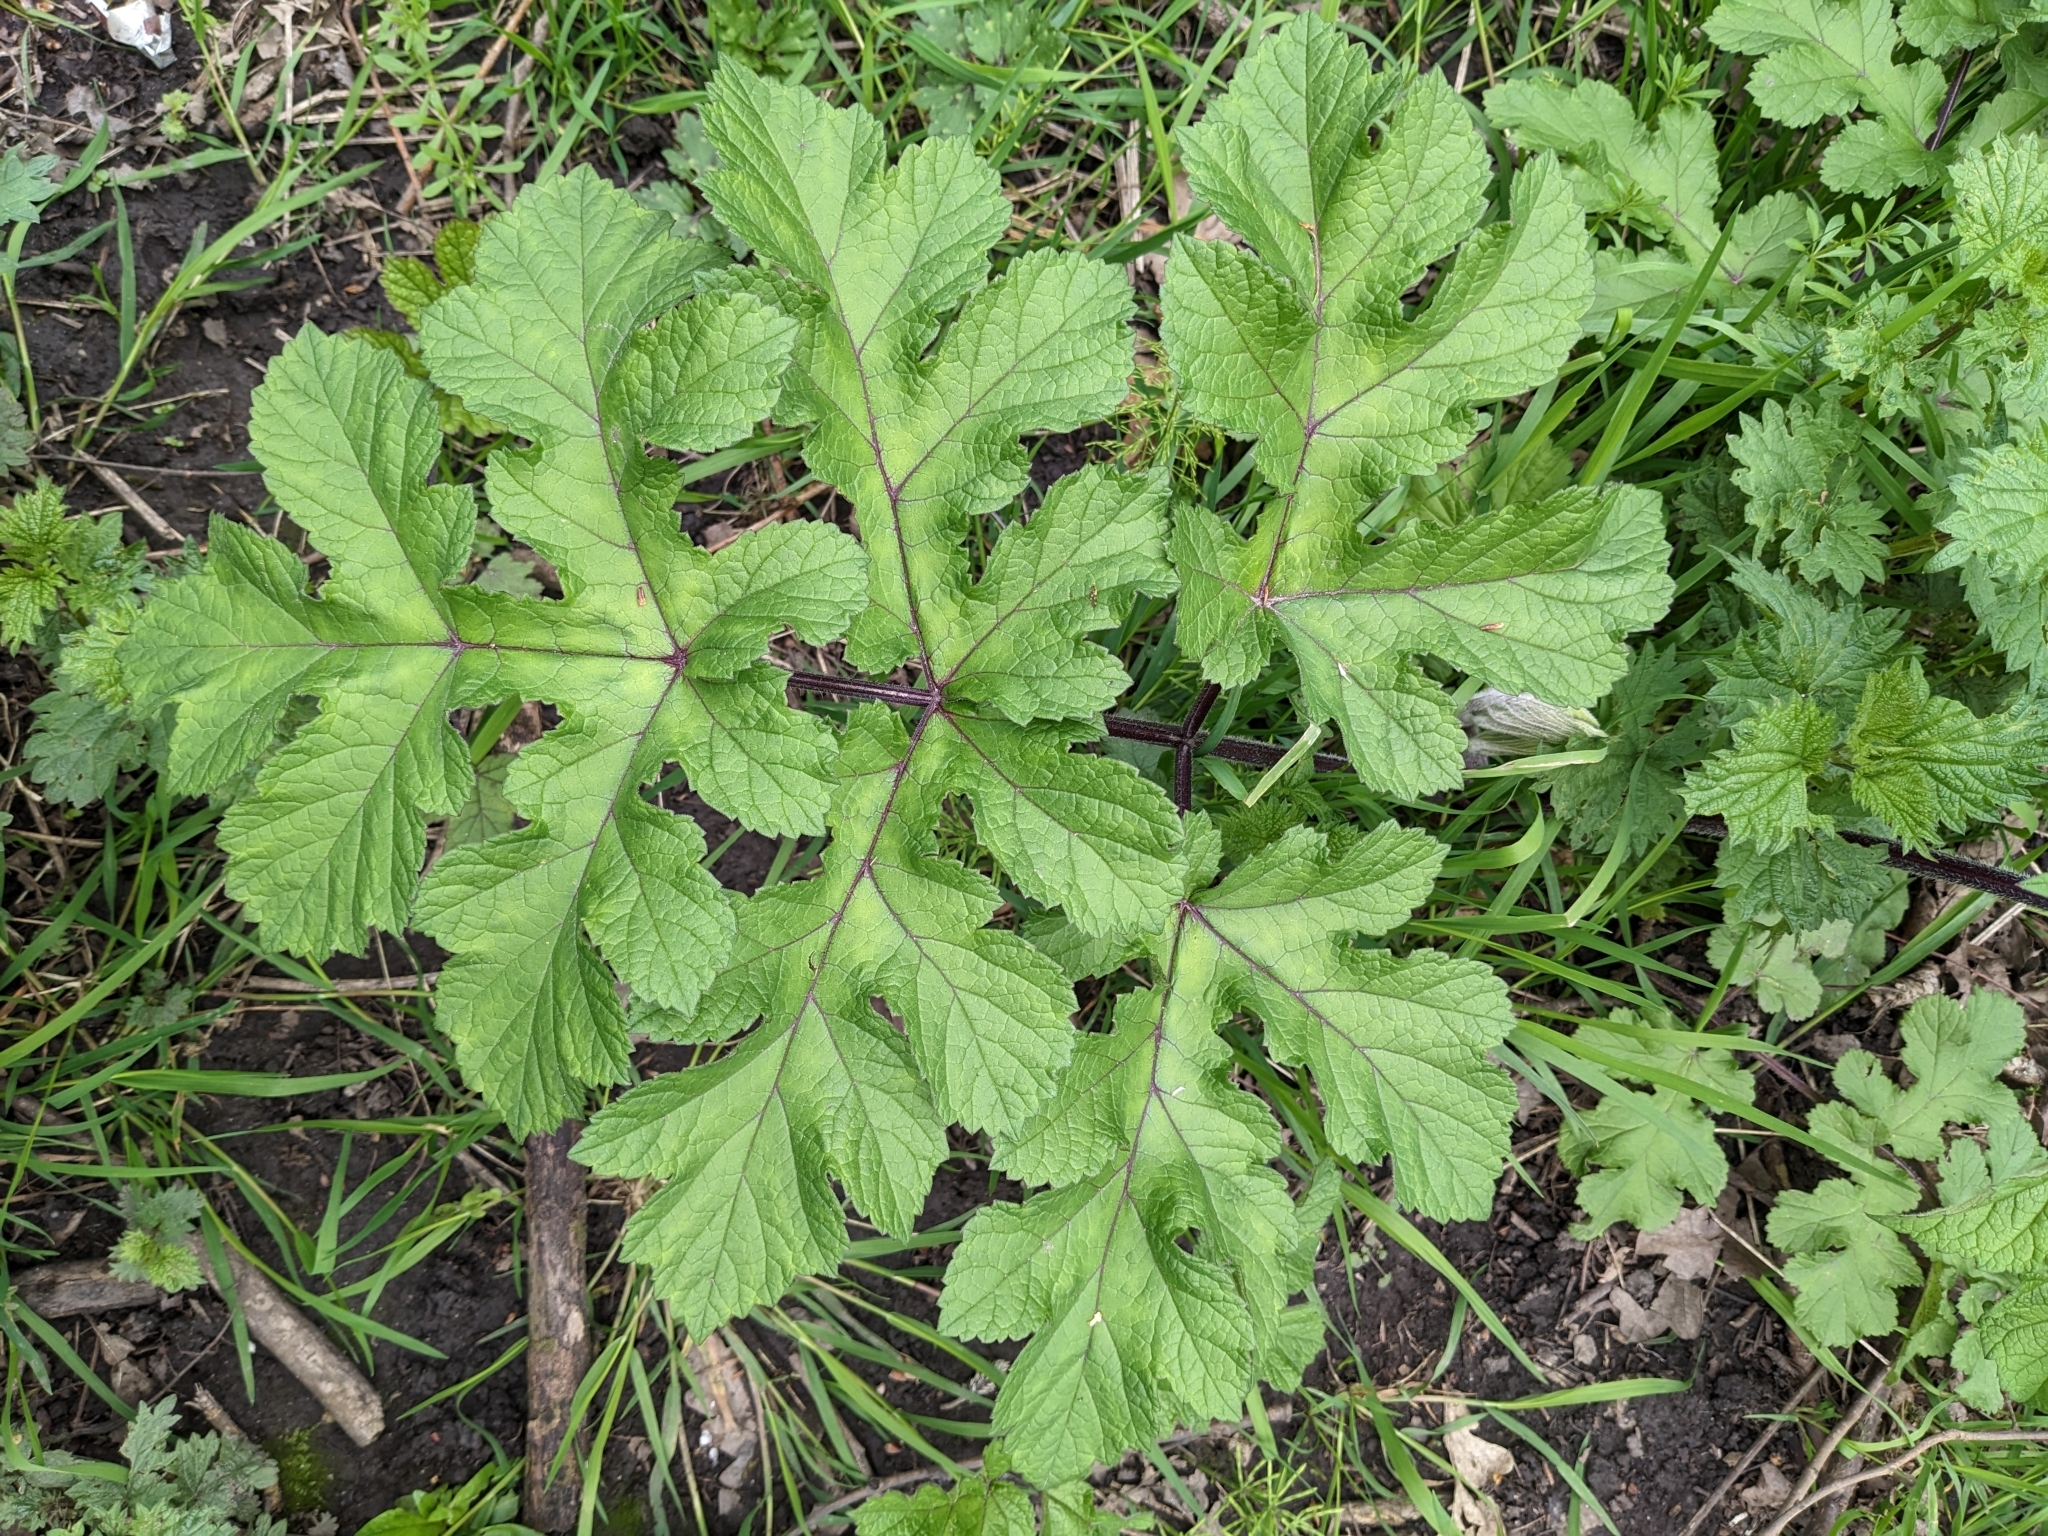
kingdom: Plantae
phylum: Tracheophyta
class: Magnoliopsida
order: Apiales
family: Apiaceae
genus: Heracleum
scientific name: Heracleum sphondylium
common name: Hogweed
